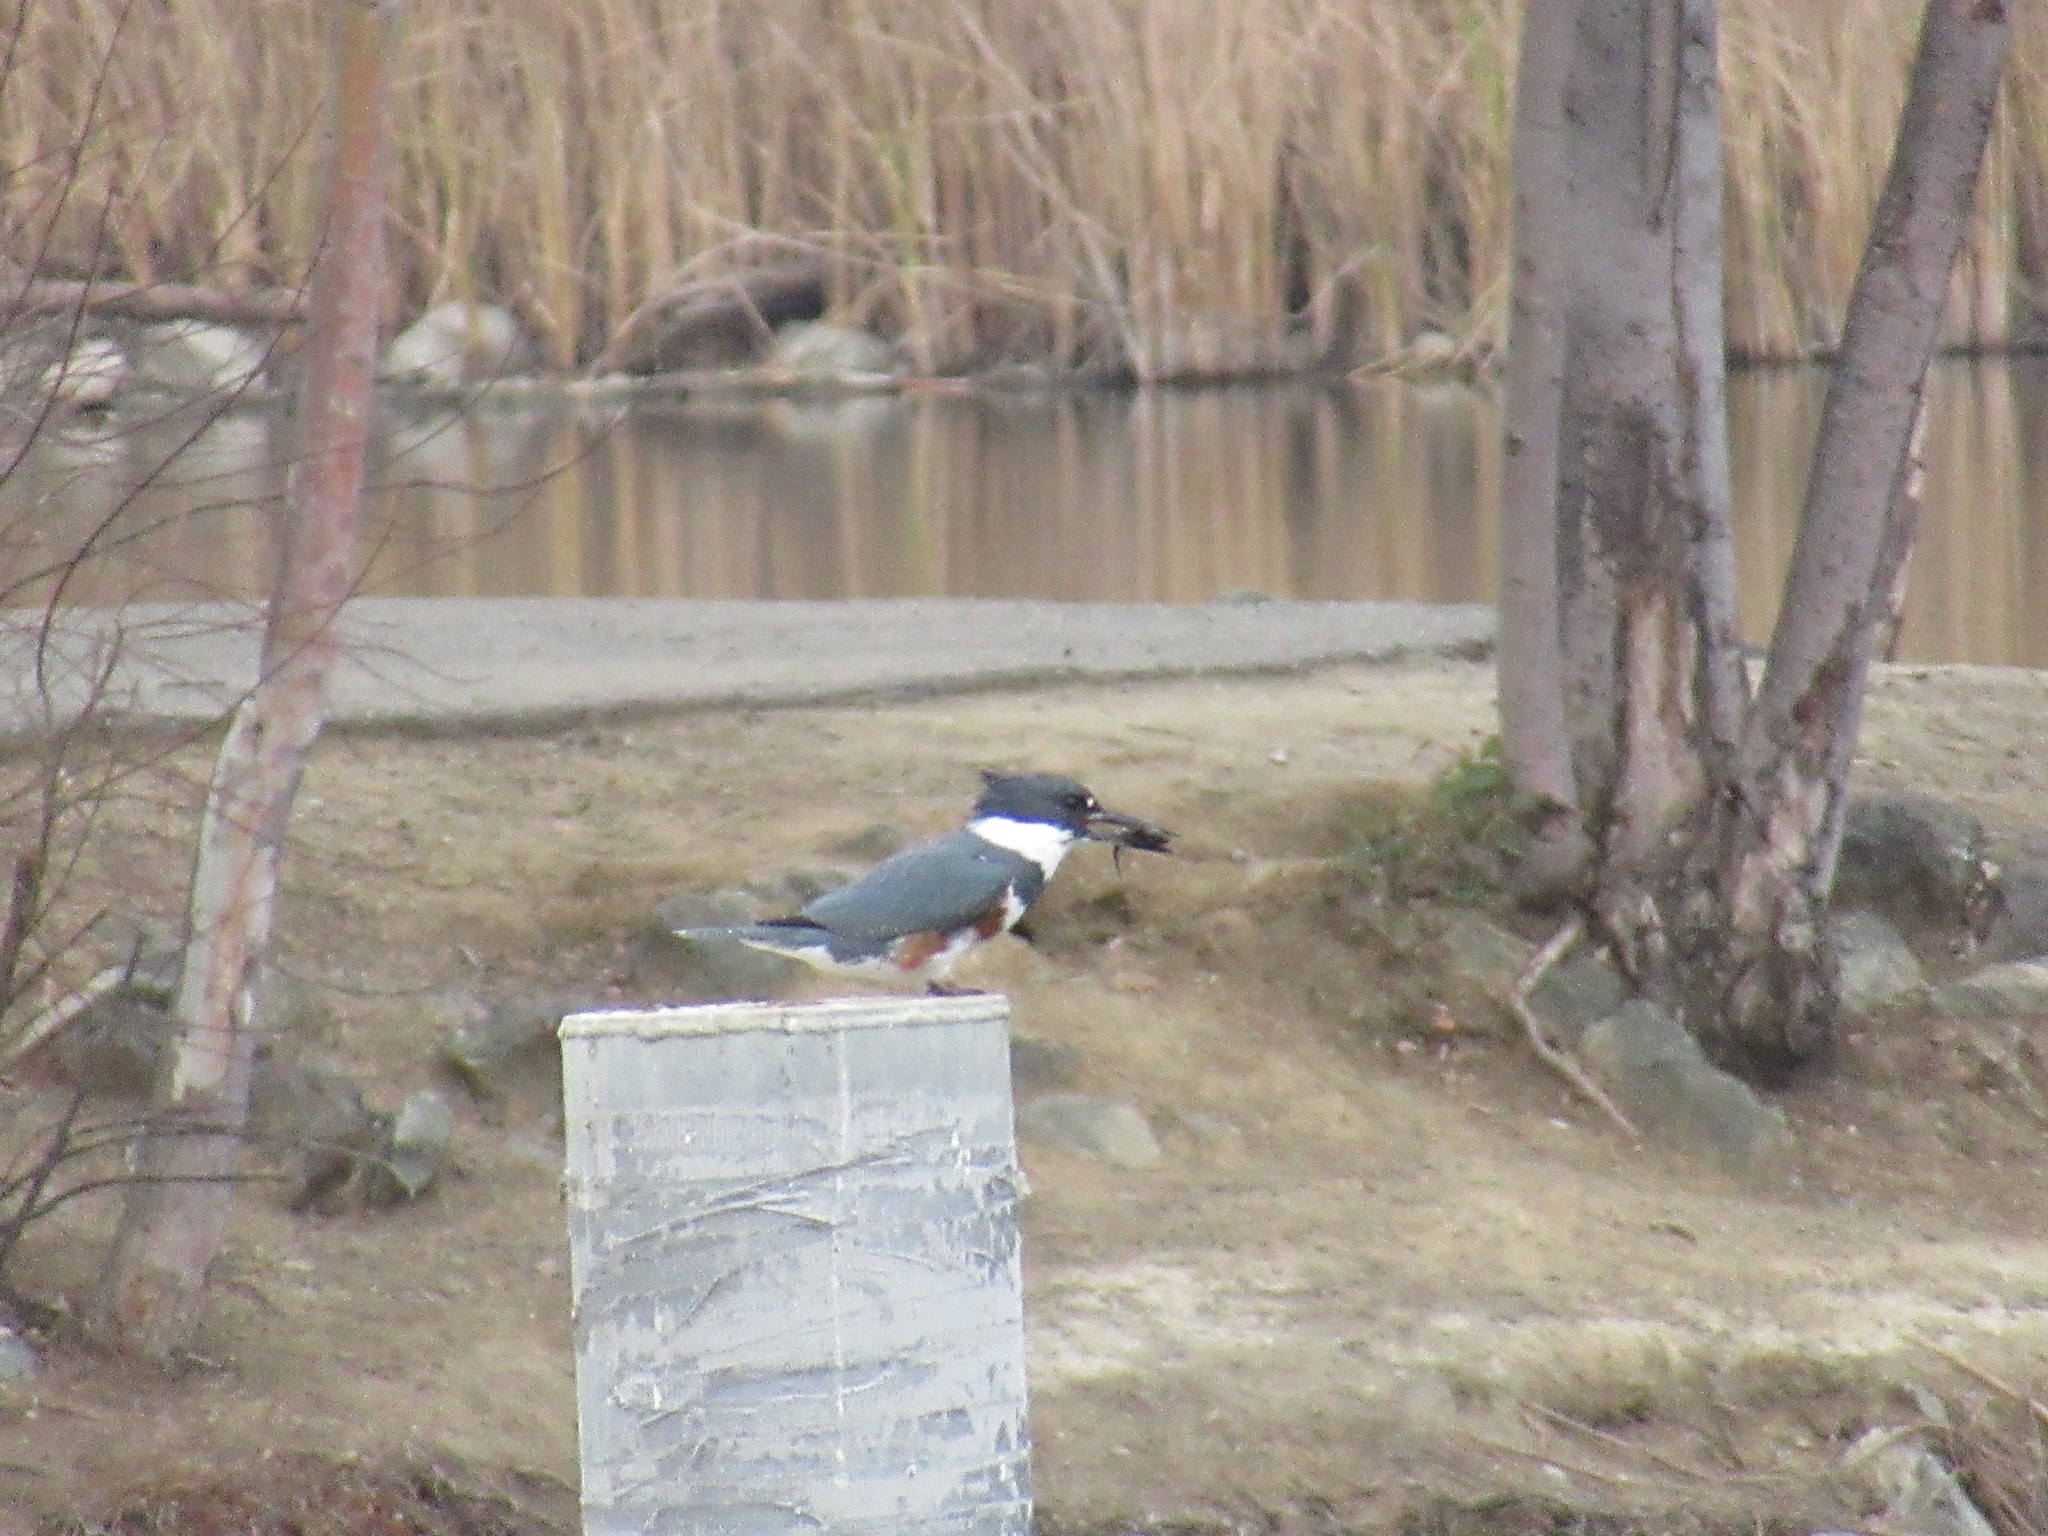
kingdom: Animalia
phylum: Chordata
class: Aves
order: Coraciiformes
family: Alcedinidae
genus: Megaceryle
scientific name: Megaceryle alcyon
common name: Belted kingfisher
